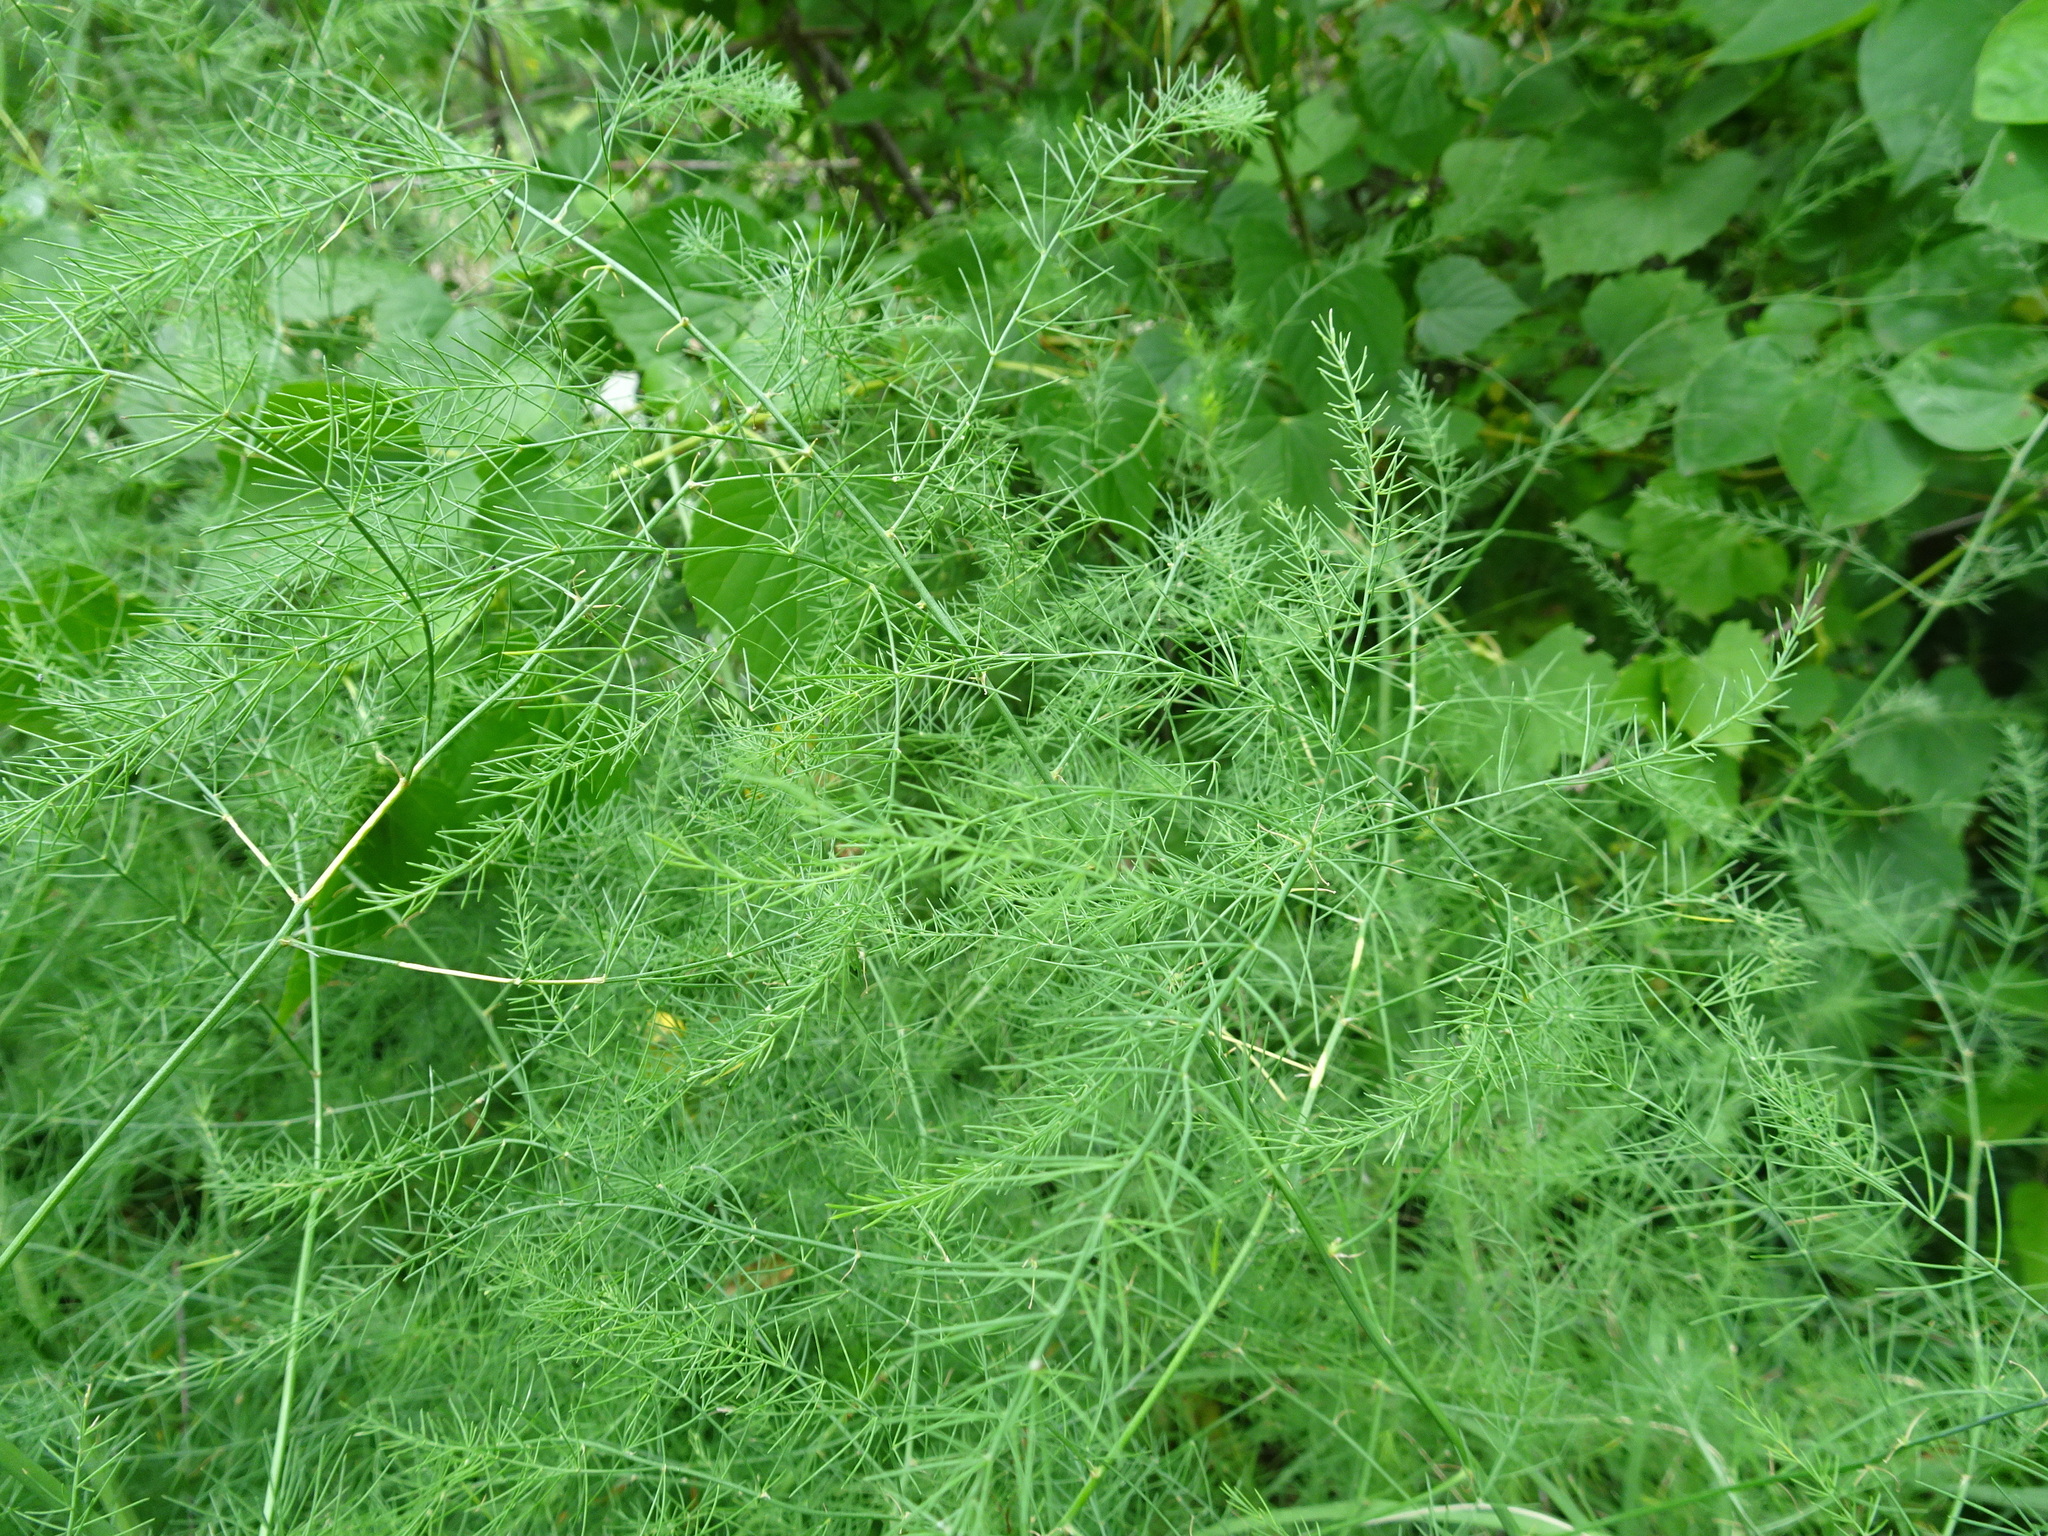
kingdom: Plantae
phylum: Tracheophyta
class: Liliopsida
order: Asparagales
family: Asparagaceae
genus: Asparagus
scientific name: Asparagus officinalis
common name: Garden asparagus
